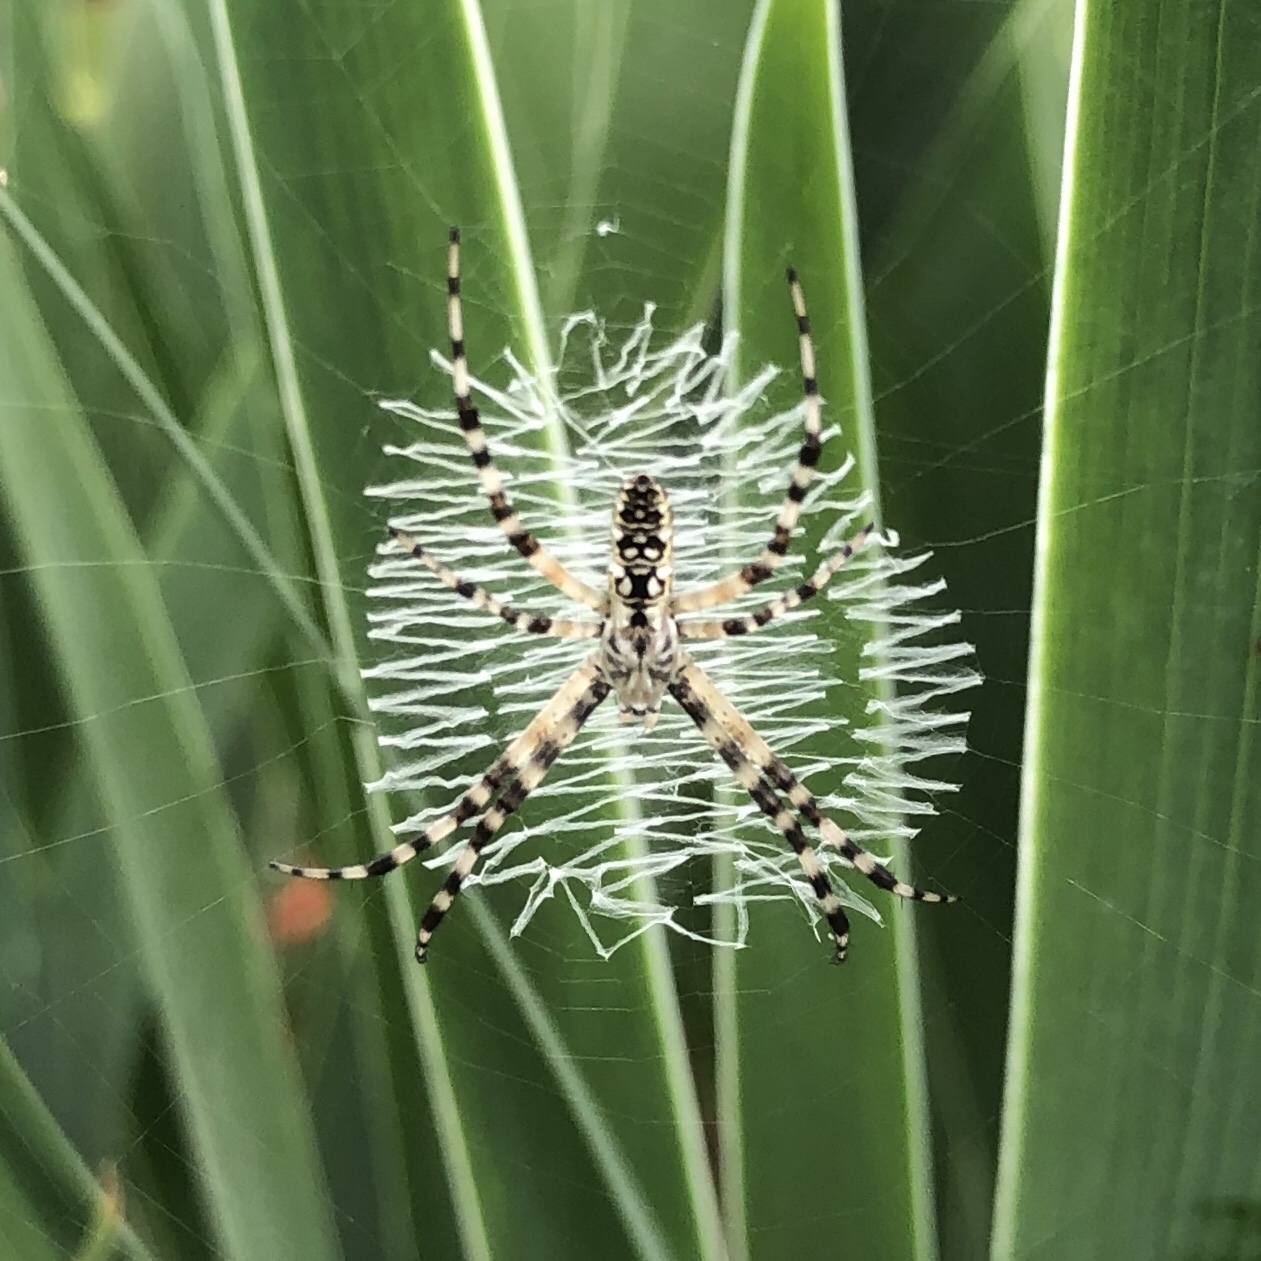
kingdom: Animalia
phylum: Arthropoda
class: Arachnida
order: Araneae
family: Araneidae
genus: Argiope
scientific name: Argiope aurantia
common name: Orb weavers
